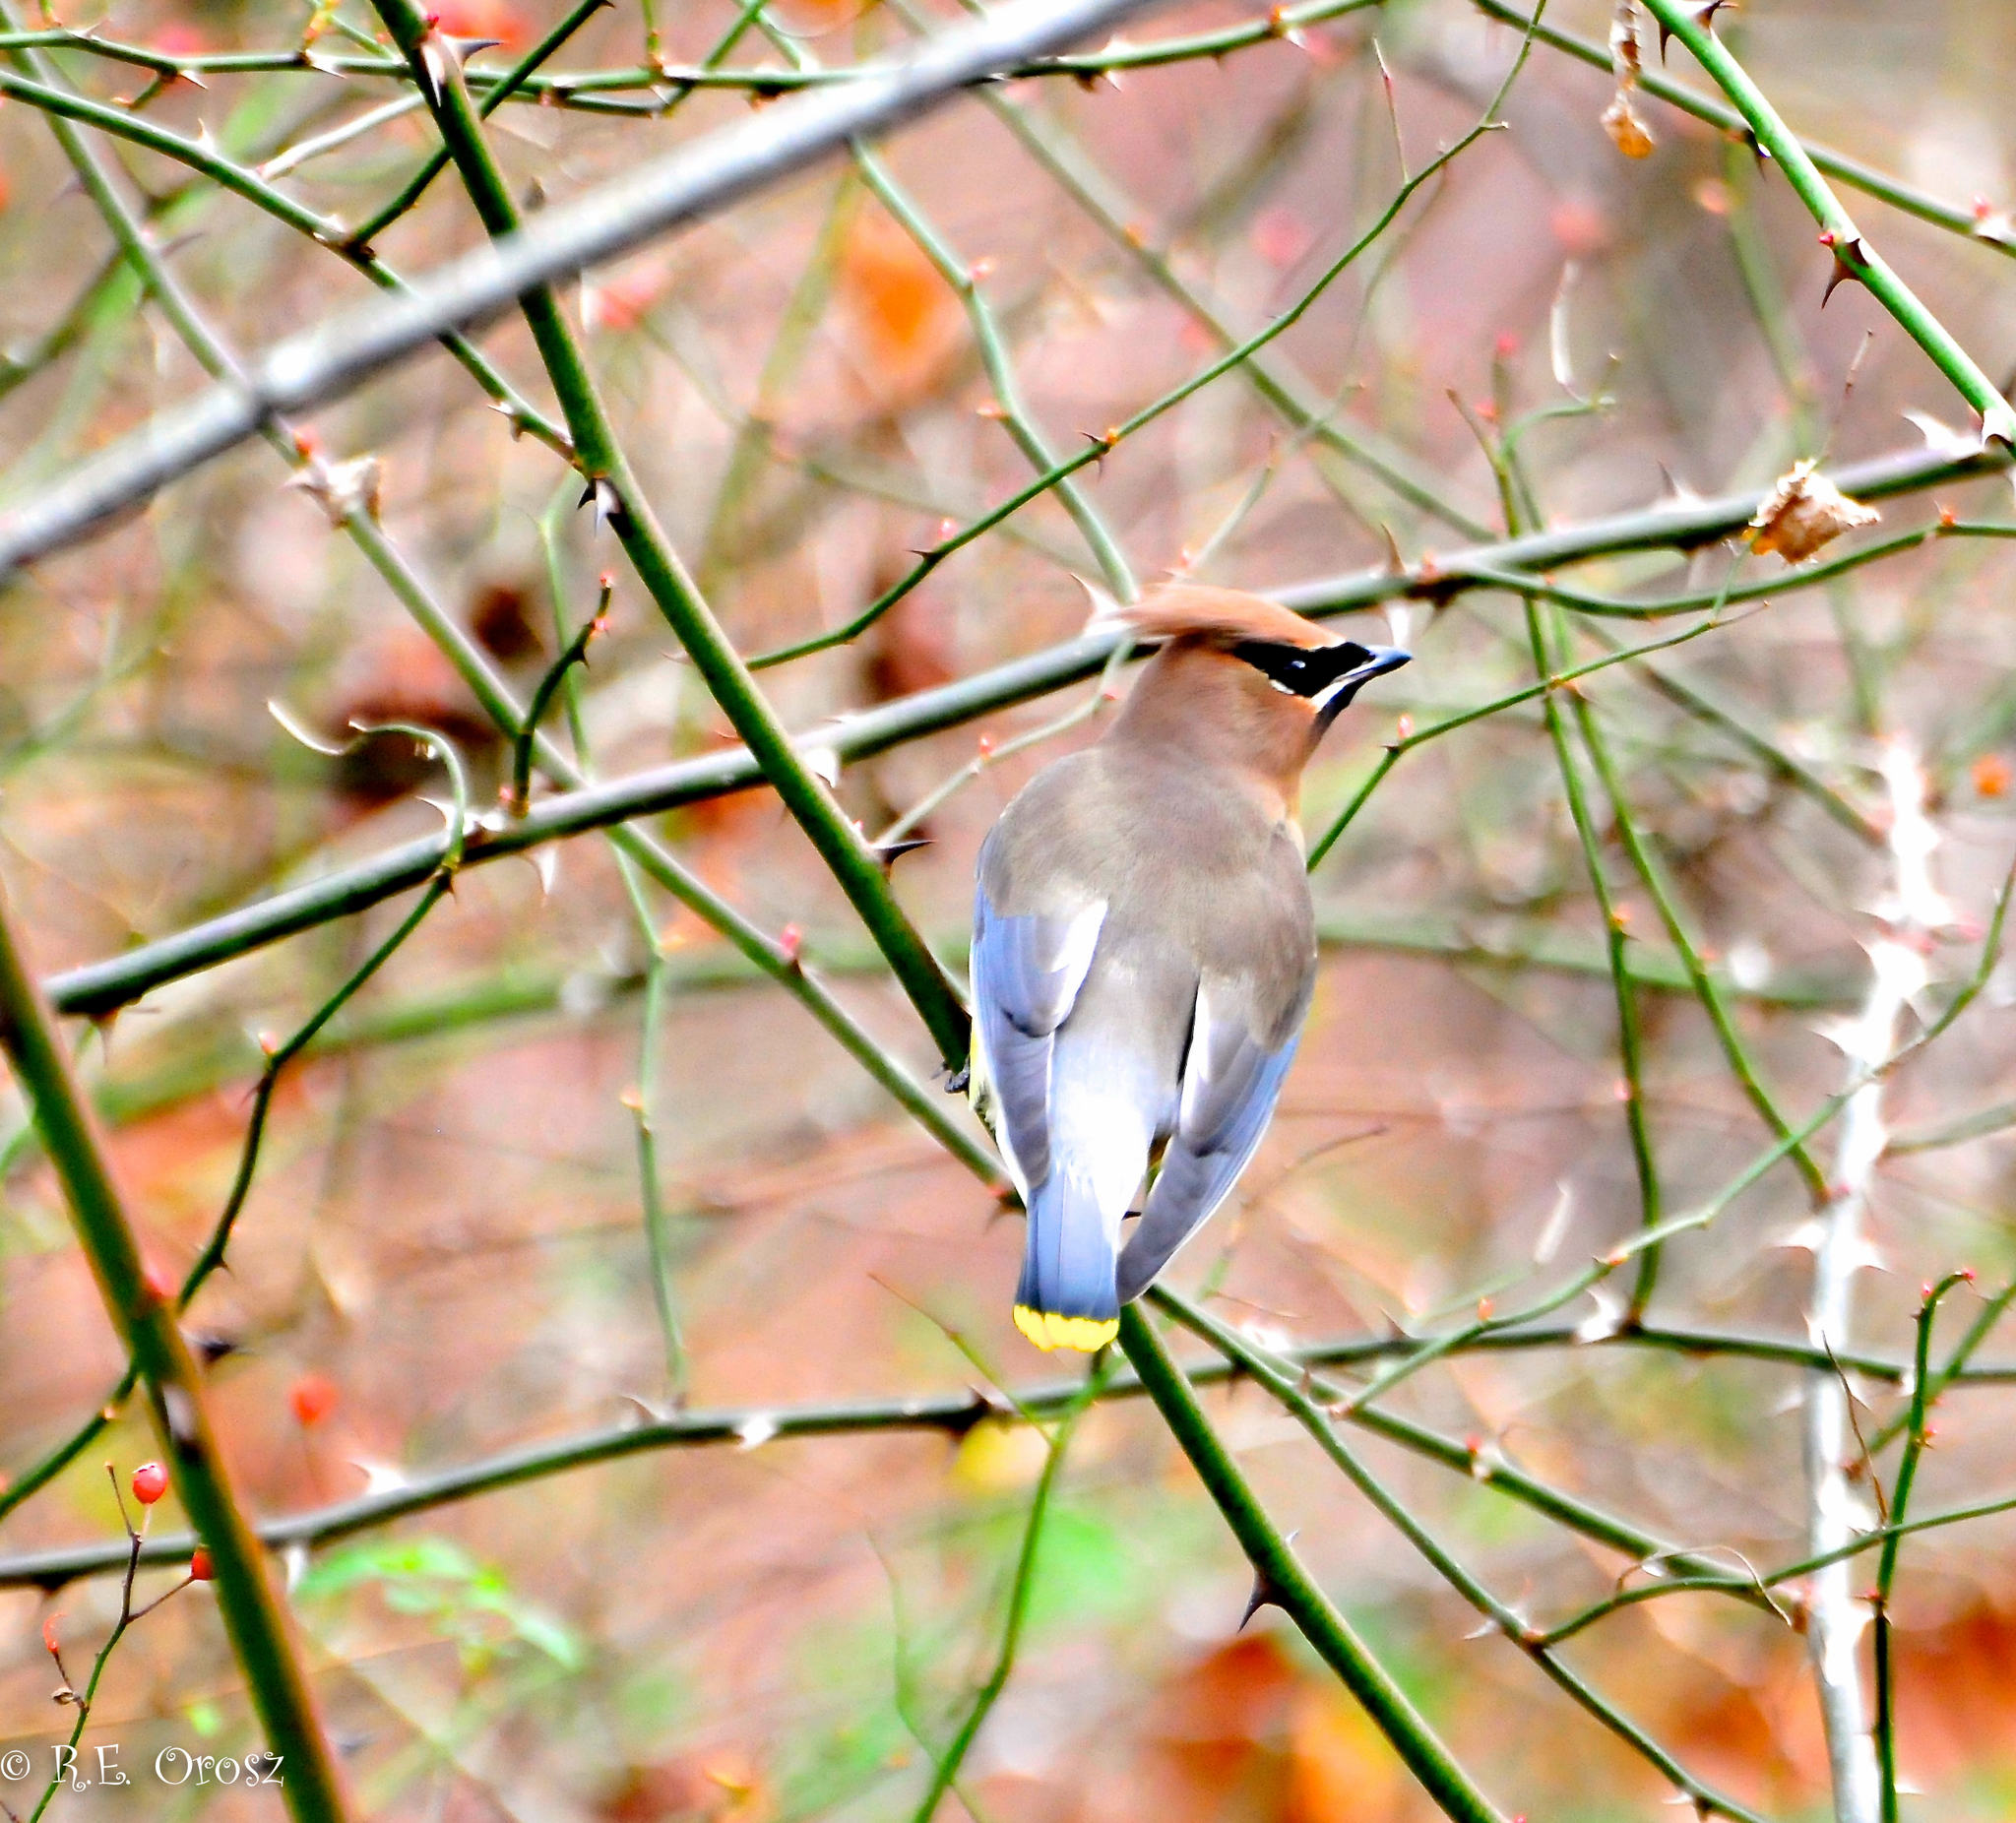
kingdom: Animalia
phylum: Chordata
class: Aves
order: Passeriformes
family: Bombycillidae
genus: Bombycilla
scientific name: Bombycilla cedrorum
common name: Cedar waxwing
